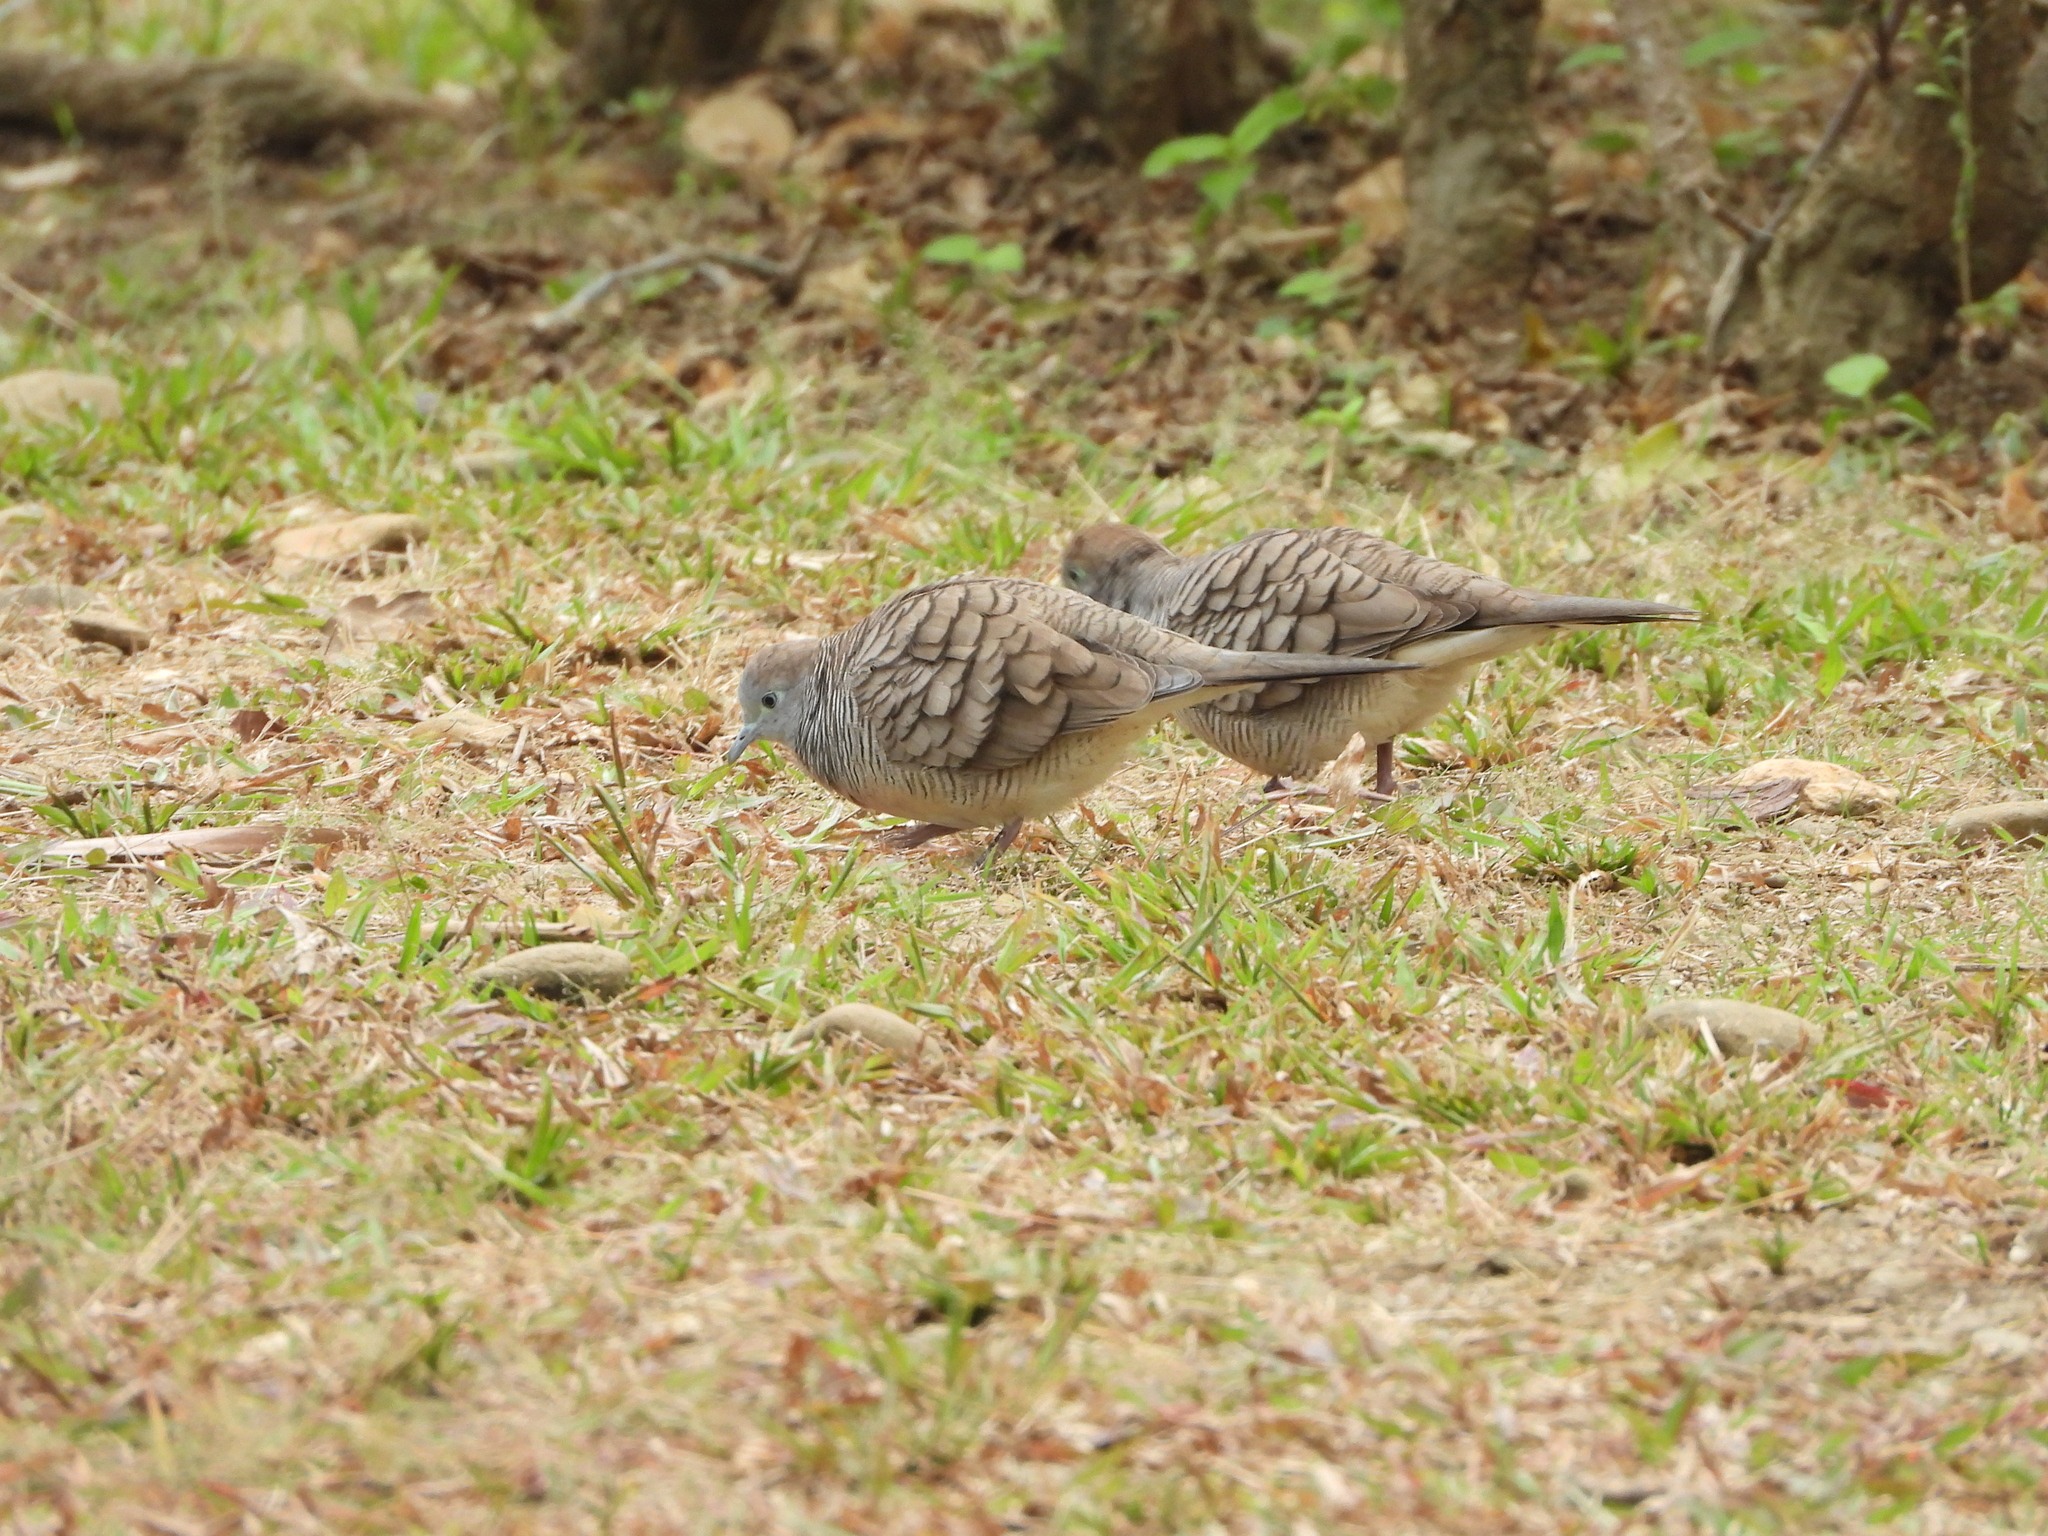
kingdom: Animalia
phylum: Chordata
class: Aves
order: Columbiformes
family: Columbidae
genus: Geopelia
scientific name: Geopelia striata
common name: Zebra dove
